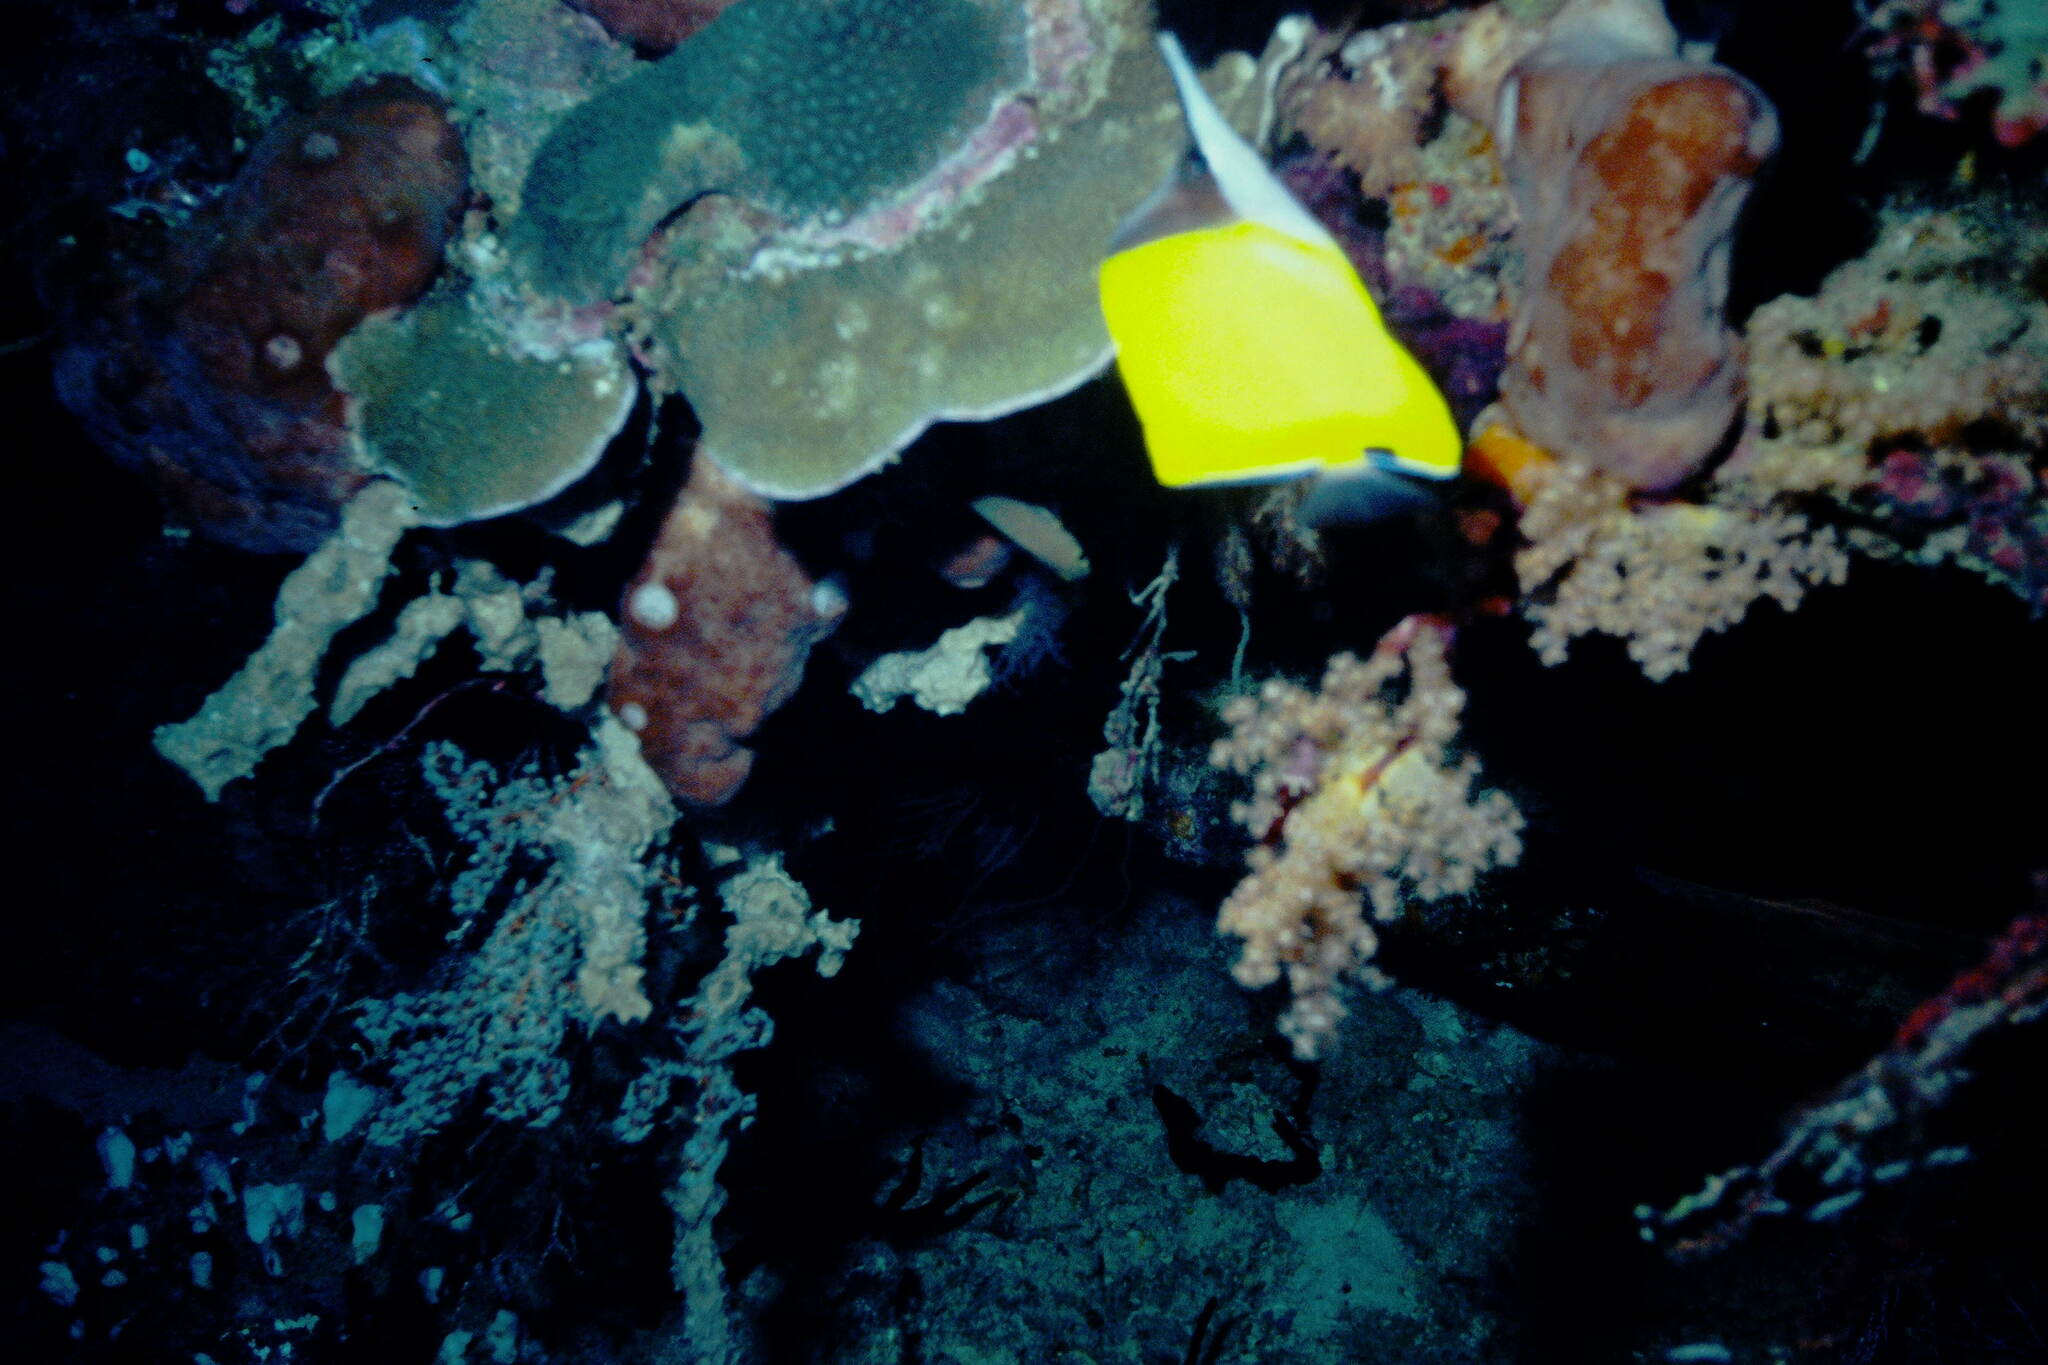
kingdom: Animalia
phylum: Chordata
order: Perciformes
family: Chaetodontidae
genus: Forcipiger
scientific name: Forcipiger flavissimus
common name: Forcepsfish
